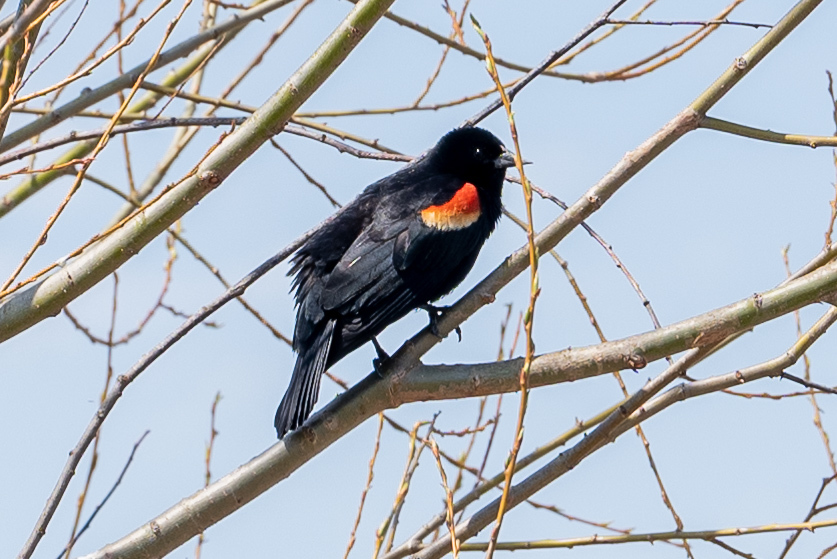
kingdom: Animalia
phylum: Chordata
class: Aves
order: Passeriformes
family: Icteridae
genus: Agelaius
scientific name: Agelaius phoeniceus
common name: Red-winged blackbird
